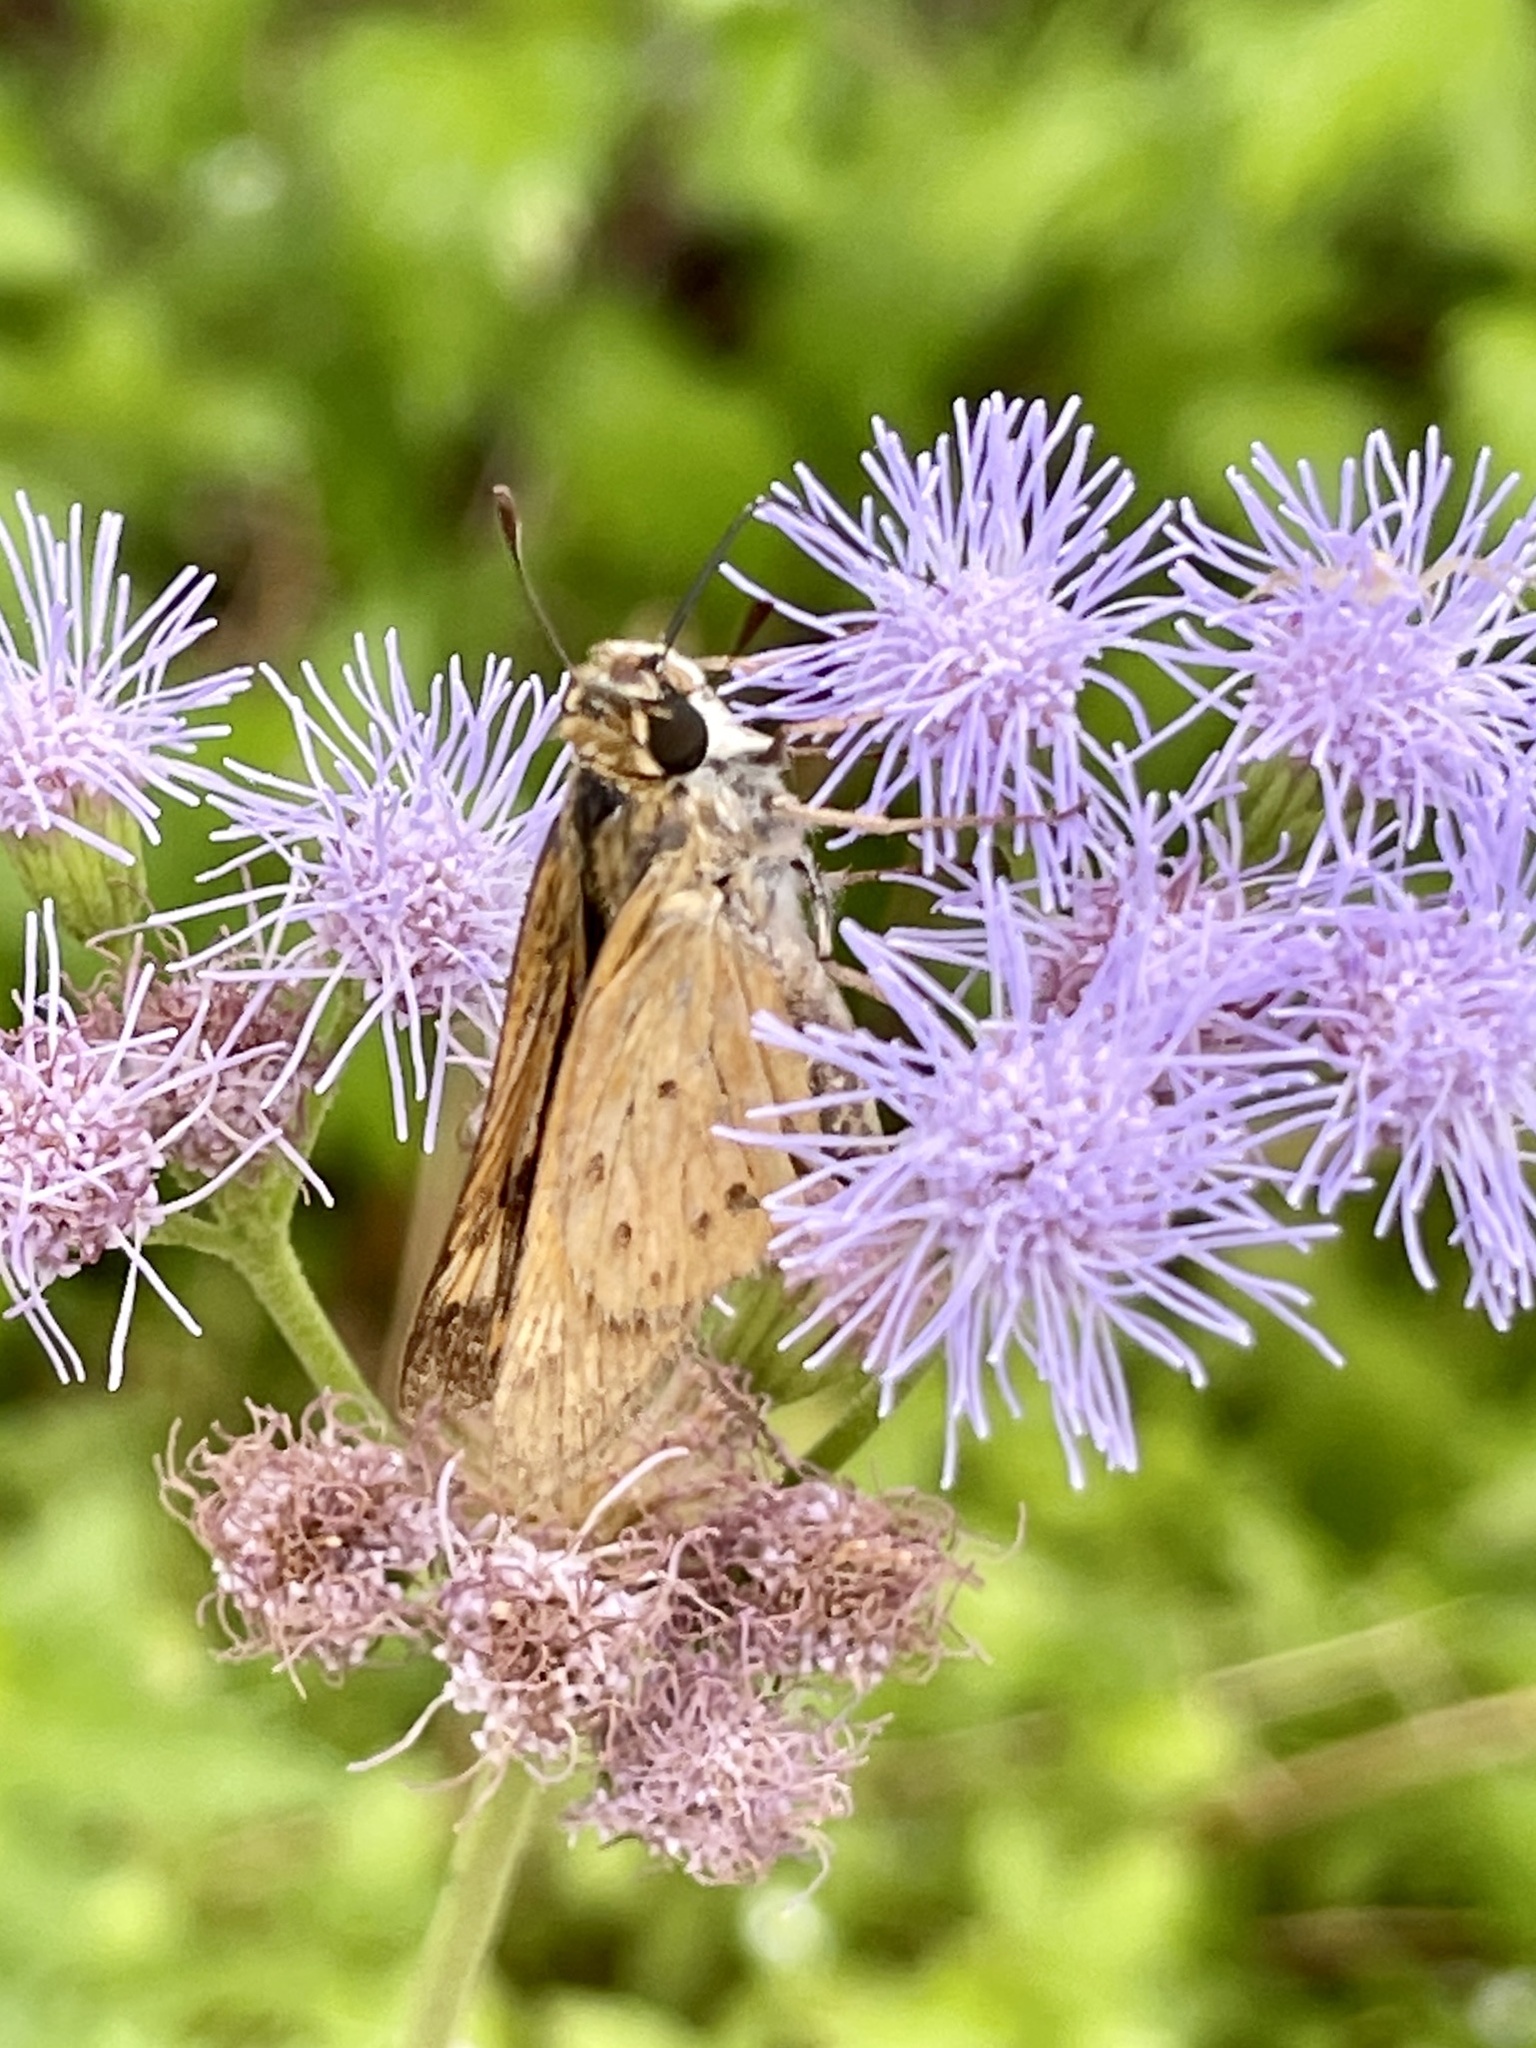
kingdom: Animalia
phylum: Arthropoda
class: Insecta
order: Lepidoptera
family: Hesperiidae
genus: Hylephila
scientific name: Hylephila phyleus
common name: Fiery skipper
